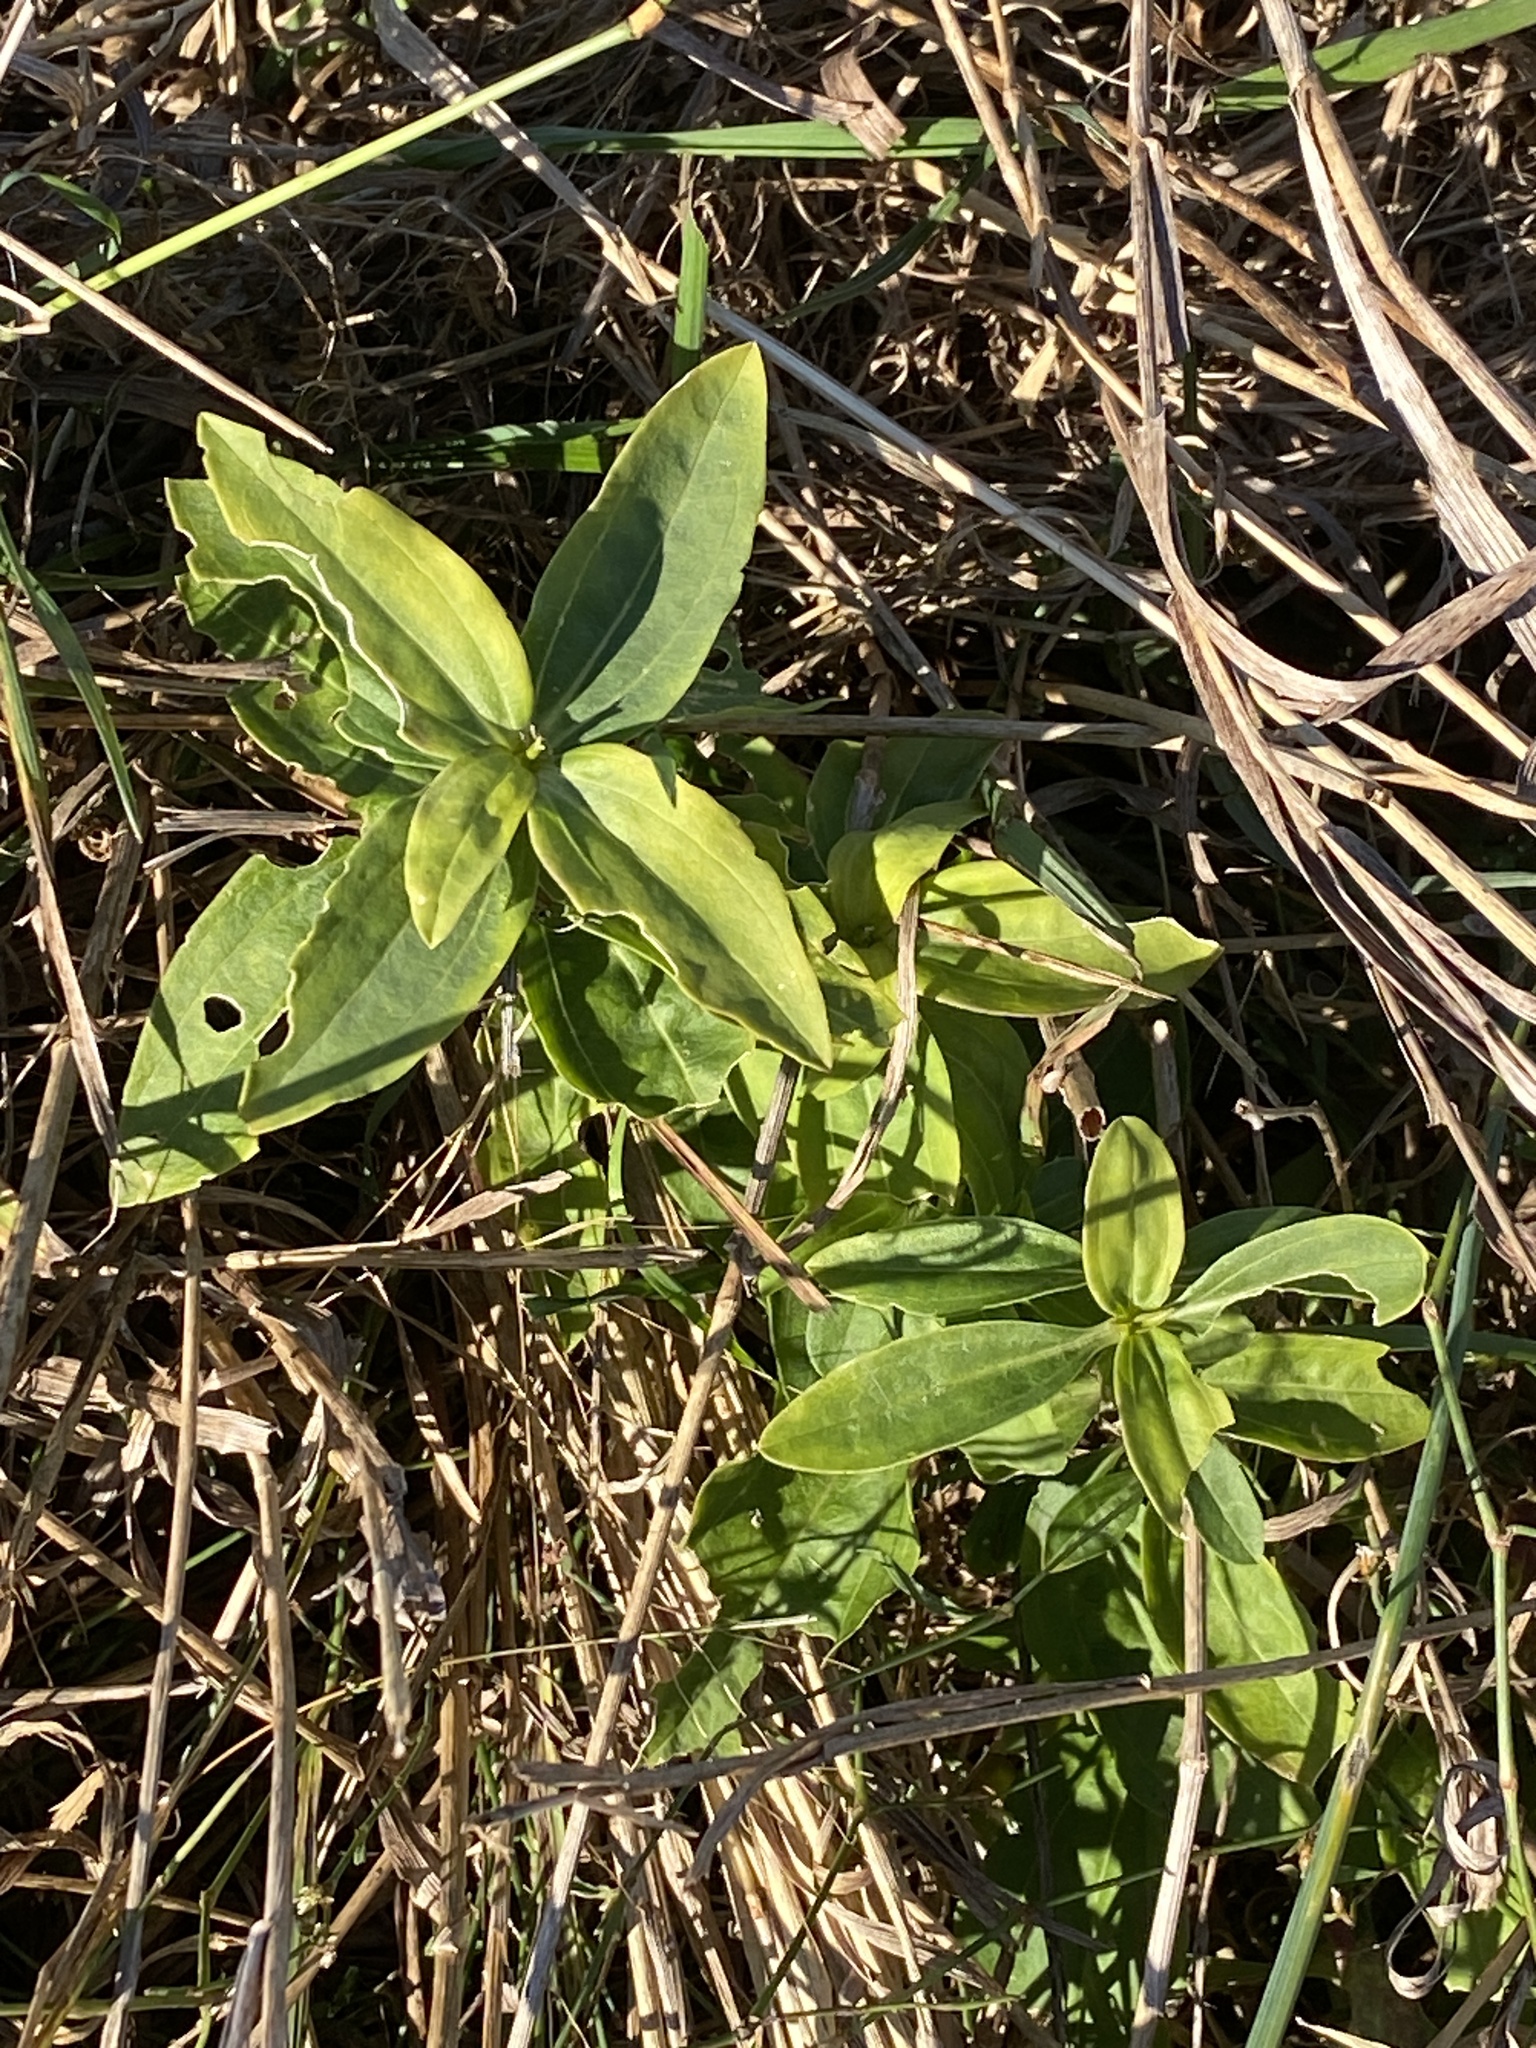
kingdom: Plantae
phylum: Tracheophyta
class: Magnoliopsida
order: Caryophyllales
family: Caryophyllaceae
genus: Saponaria
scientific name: Saponaria officinalis
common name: Soapwort
